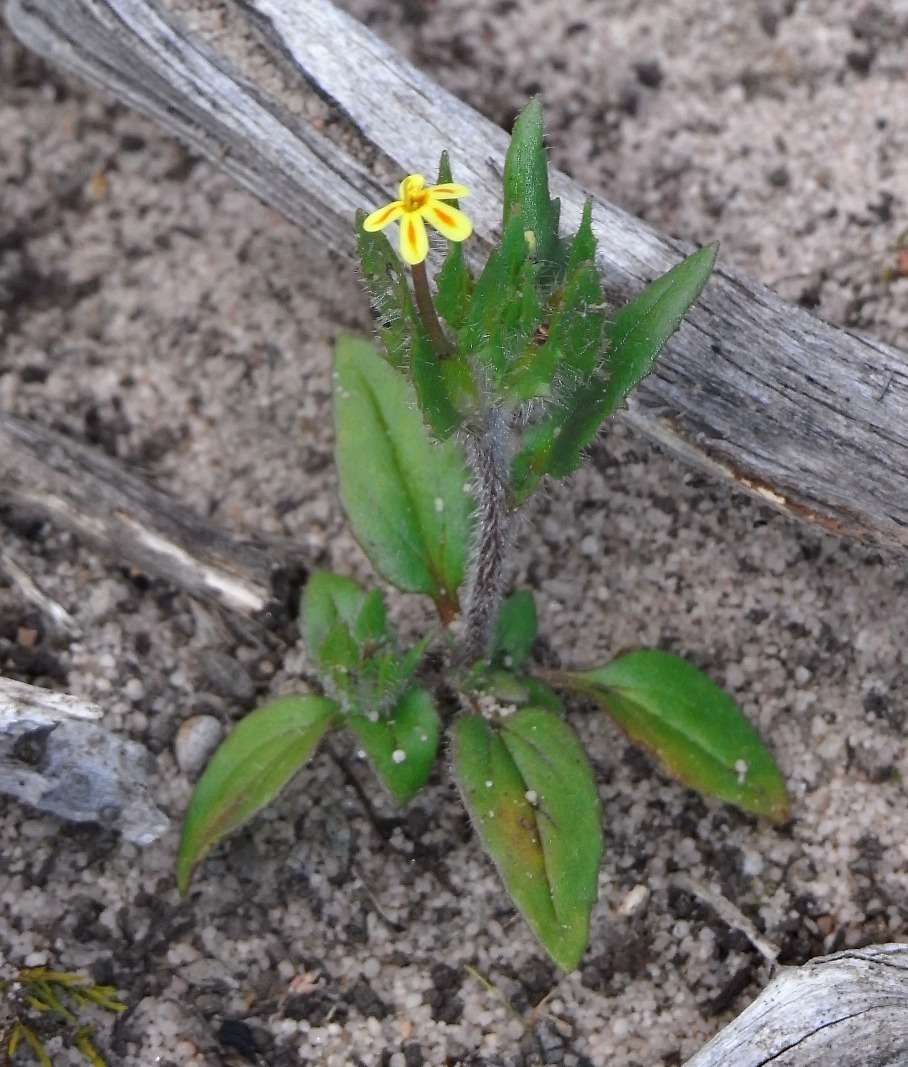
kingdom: Plantae
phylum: Tracheophyta
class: Magnoliopsida
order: Lamiales
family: Scrophulariaceae
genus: Zaluzianskya
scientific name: Zaluzianskya divaricata
